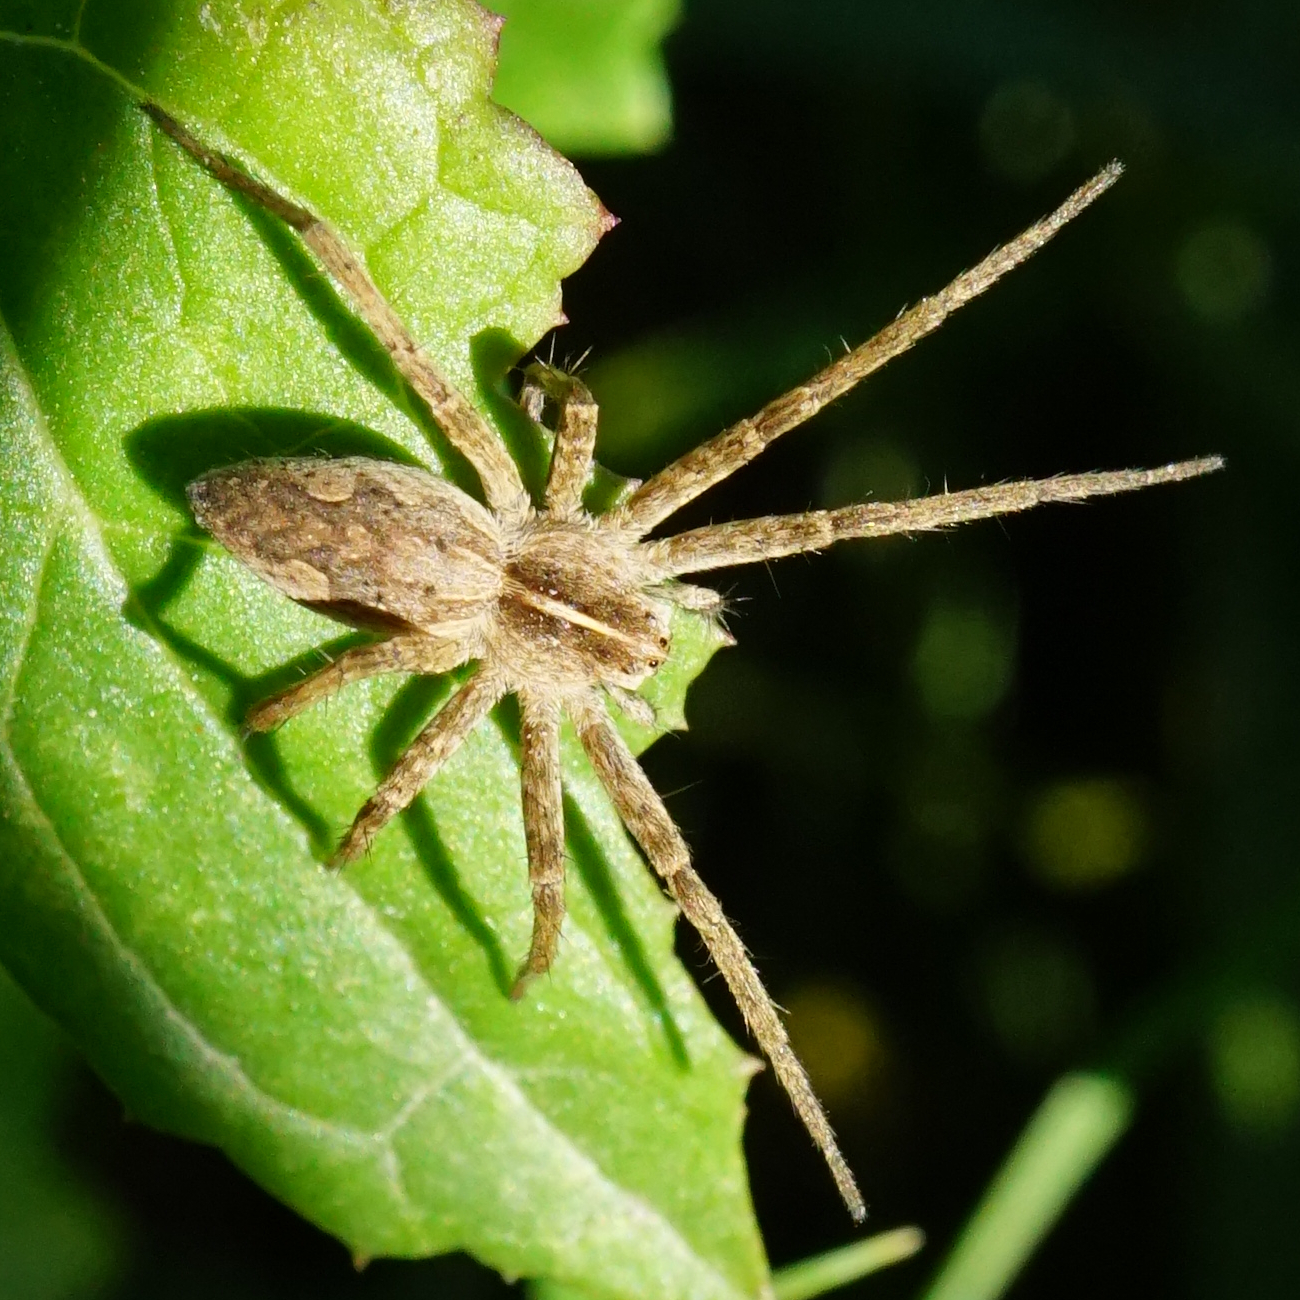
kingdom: Animalia
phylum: Arthropoda
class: Arachnida
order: Araneae
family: Pisauridae
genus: Pisaura
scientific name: Pisaura mirabilis
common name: Tent spider
